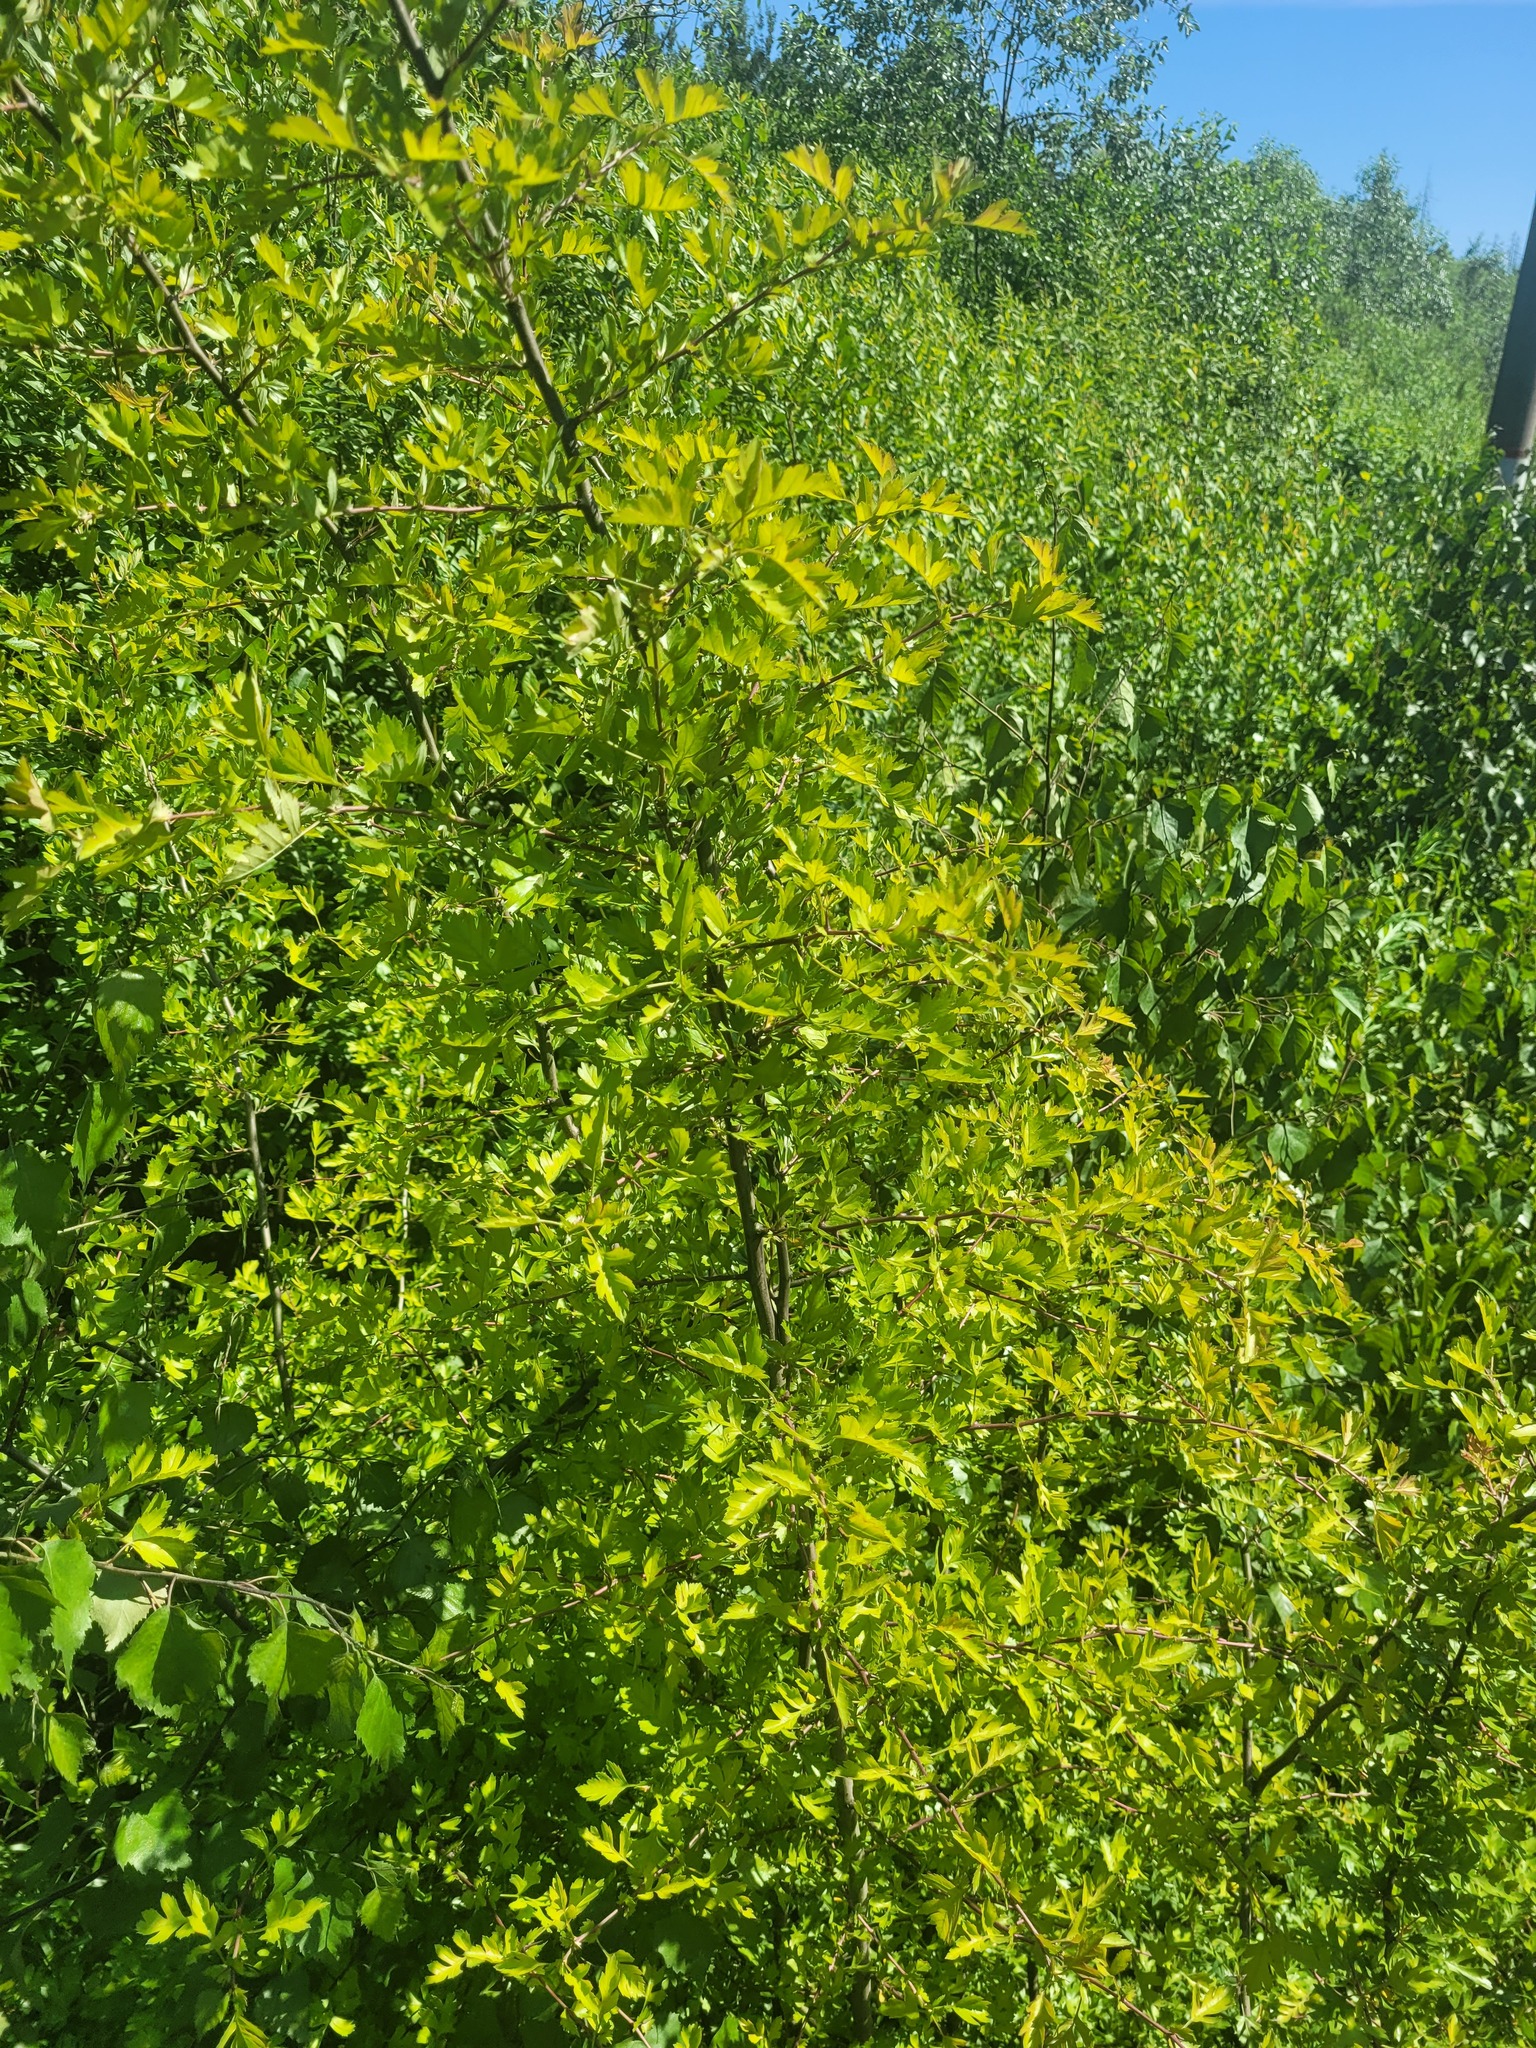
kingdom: Plantae
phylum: Tracheophyta
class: Magnoliopsida
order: Rosales
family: Rosaceae
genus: Crataegus
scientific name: Crataegus monogyna
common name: Hawthorn
